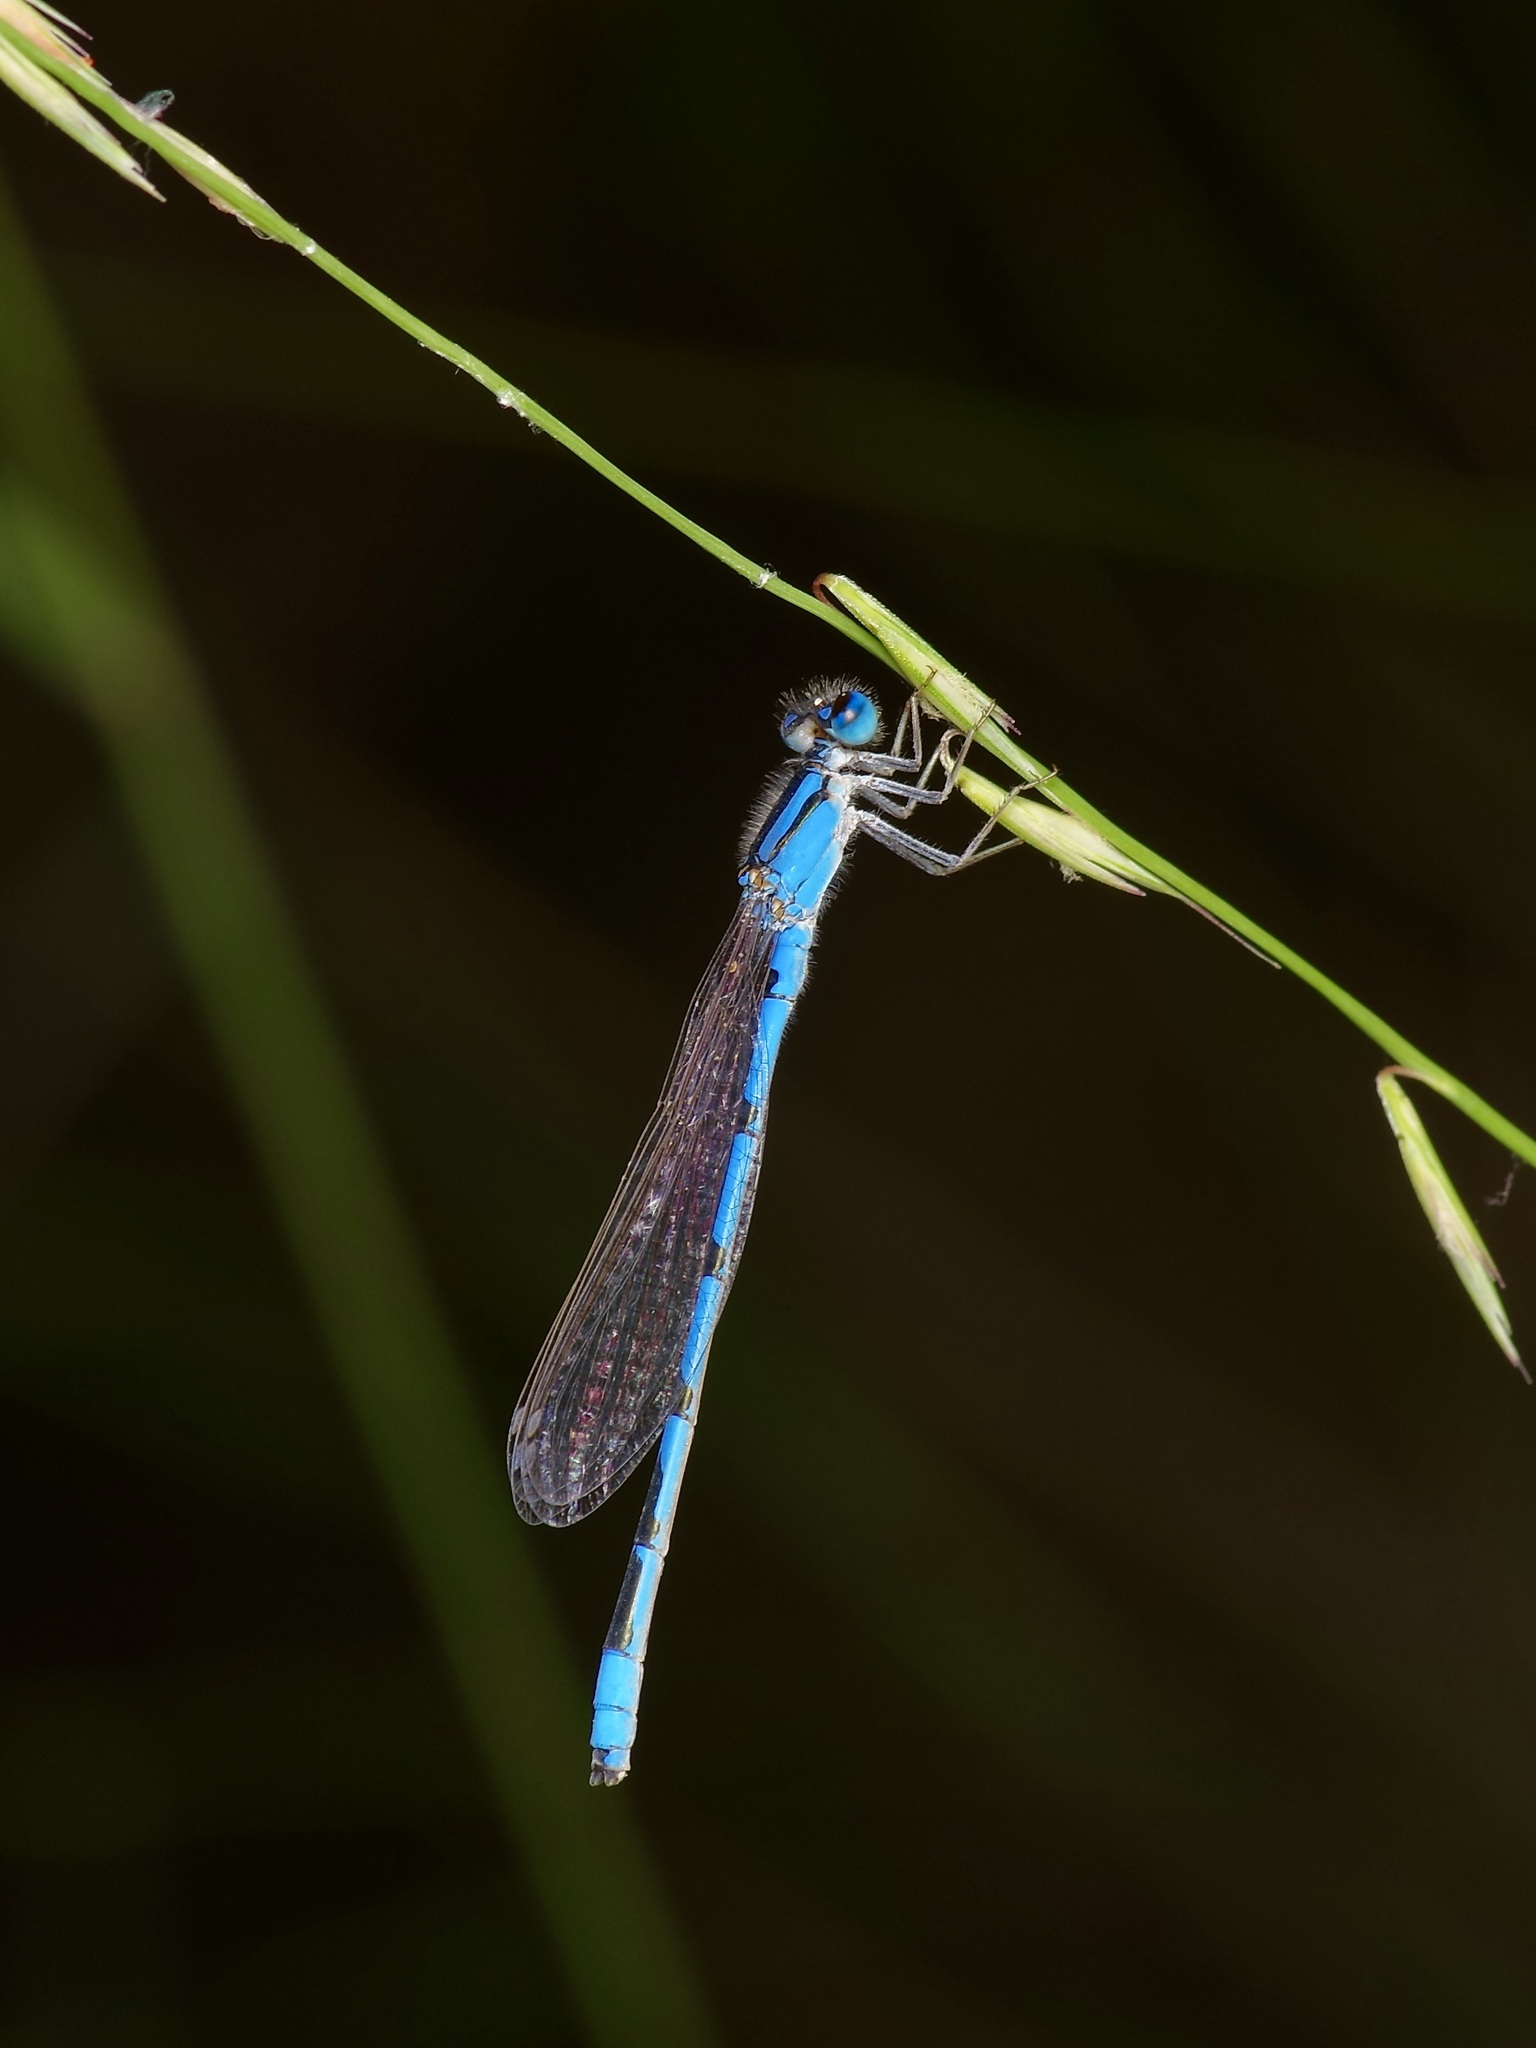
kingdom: Animalia
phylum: Arthropoda
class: Insecta
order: Odonata
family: Coenagrionidae
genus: Enallagma
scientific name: Enallagma civile
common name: Damselfly
